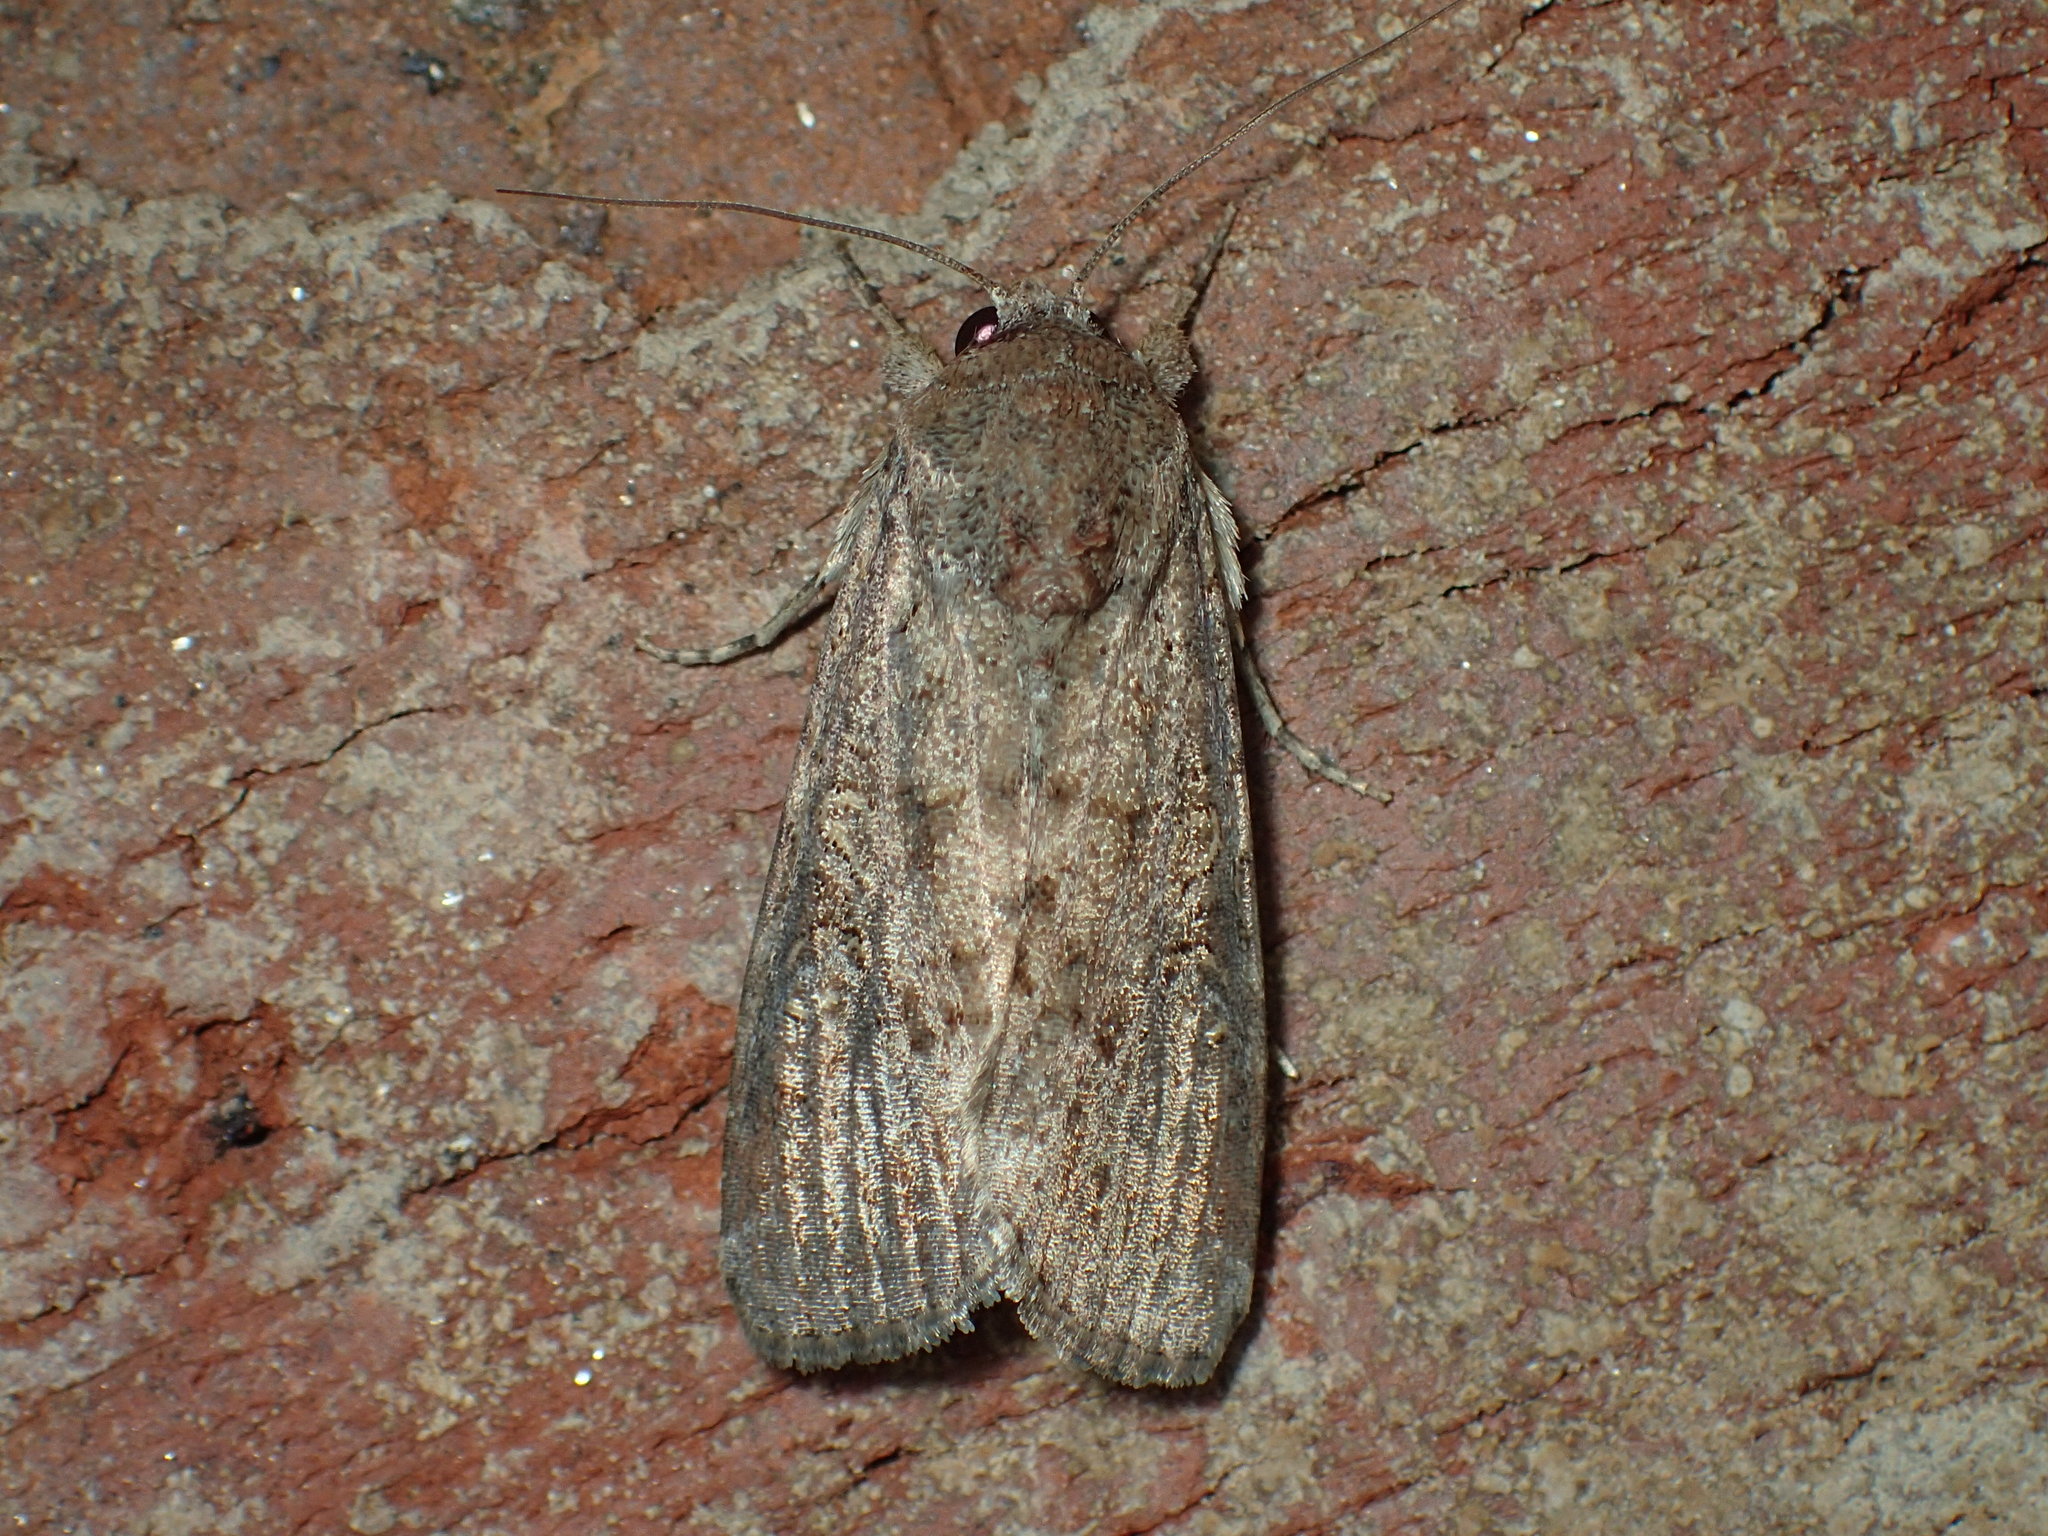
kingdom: Animalia
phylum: Arthropoda
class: Insecta
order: Lepidoptera
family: Noctuidae
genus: Spodoptera
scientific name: Spodoptera frugiperda
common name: Fall armyworm
